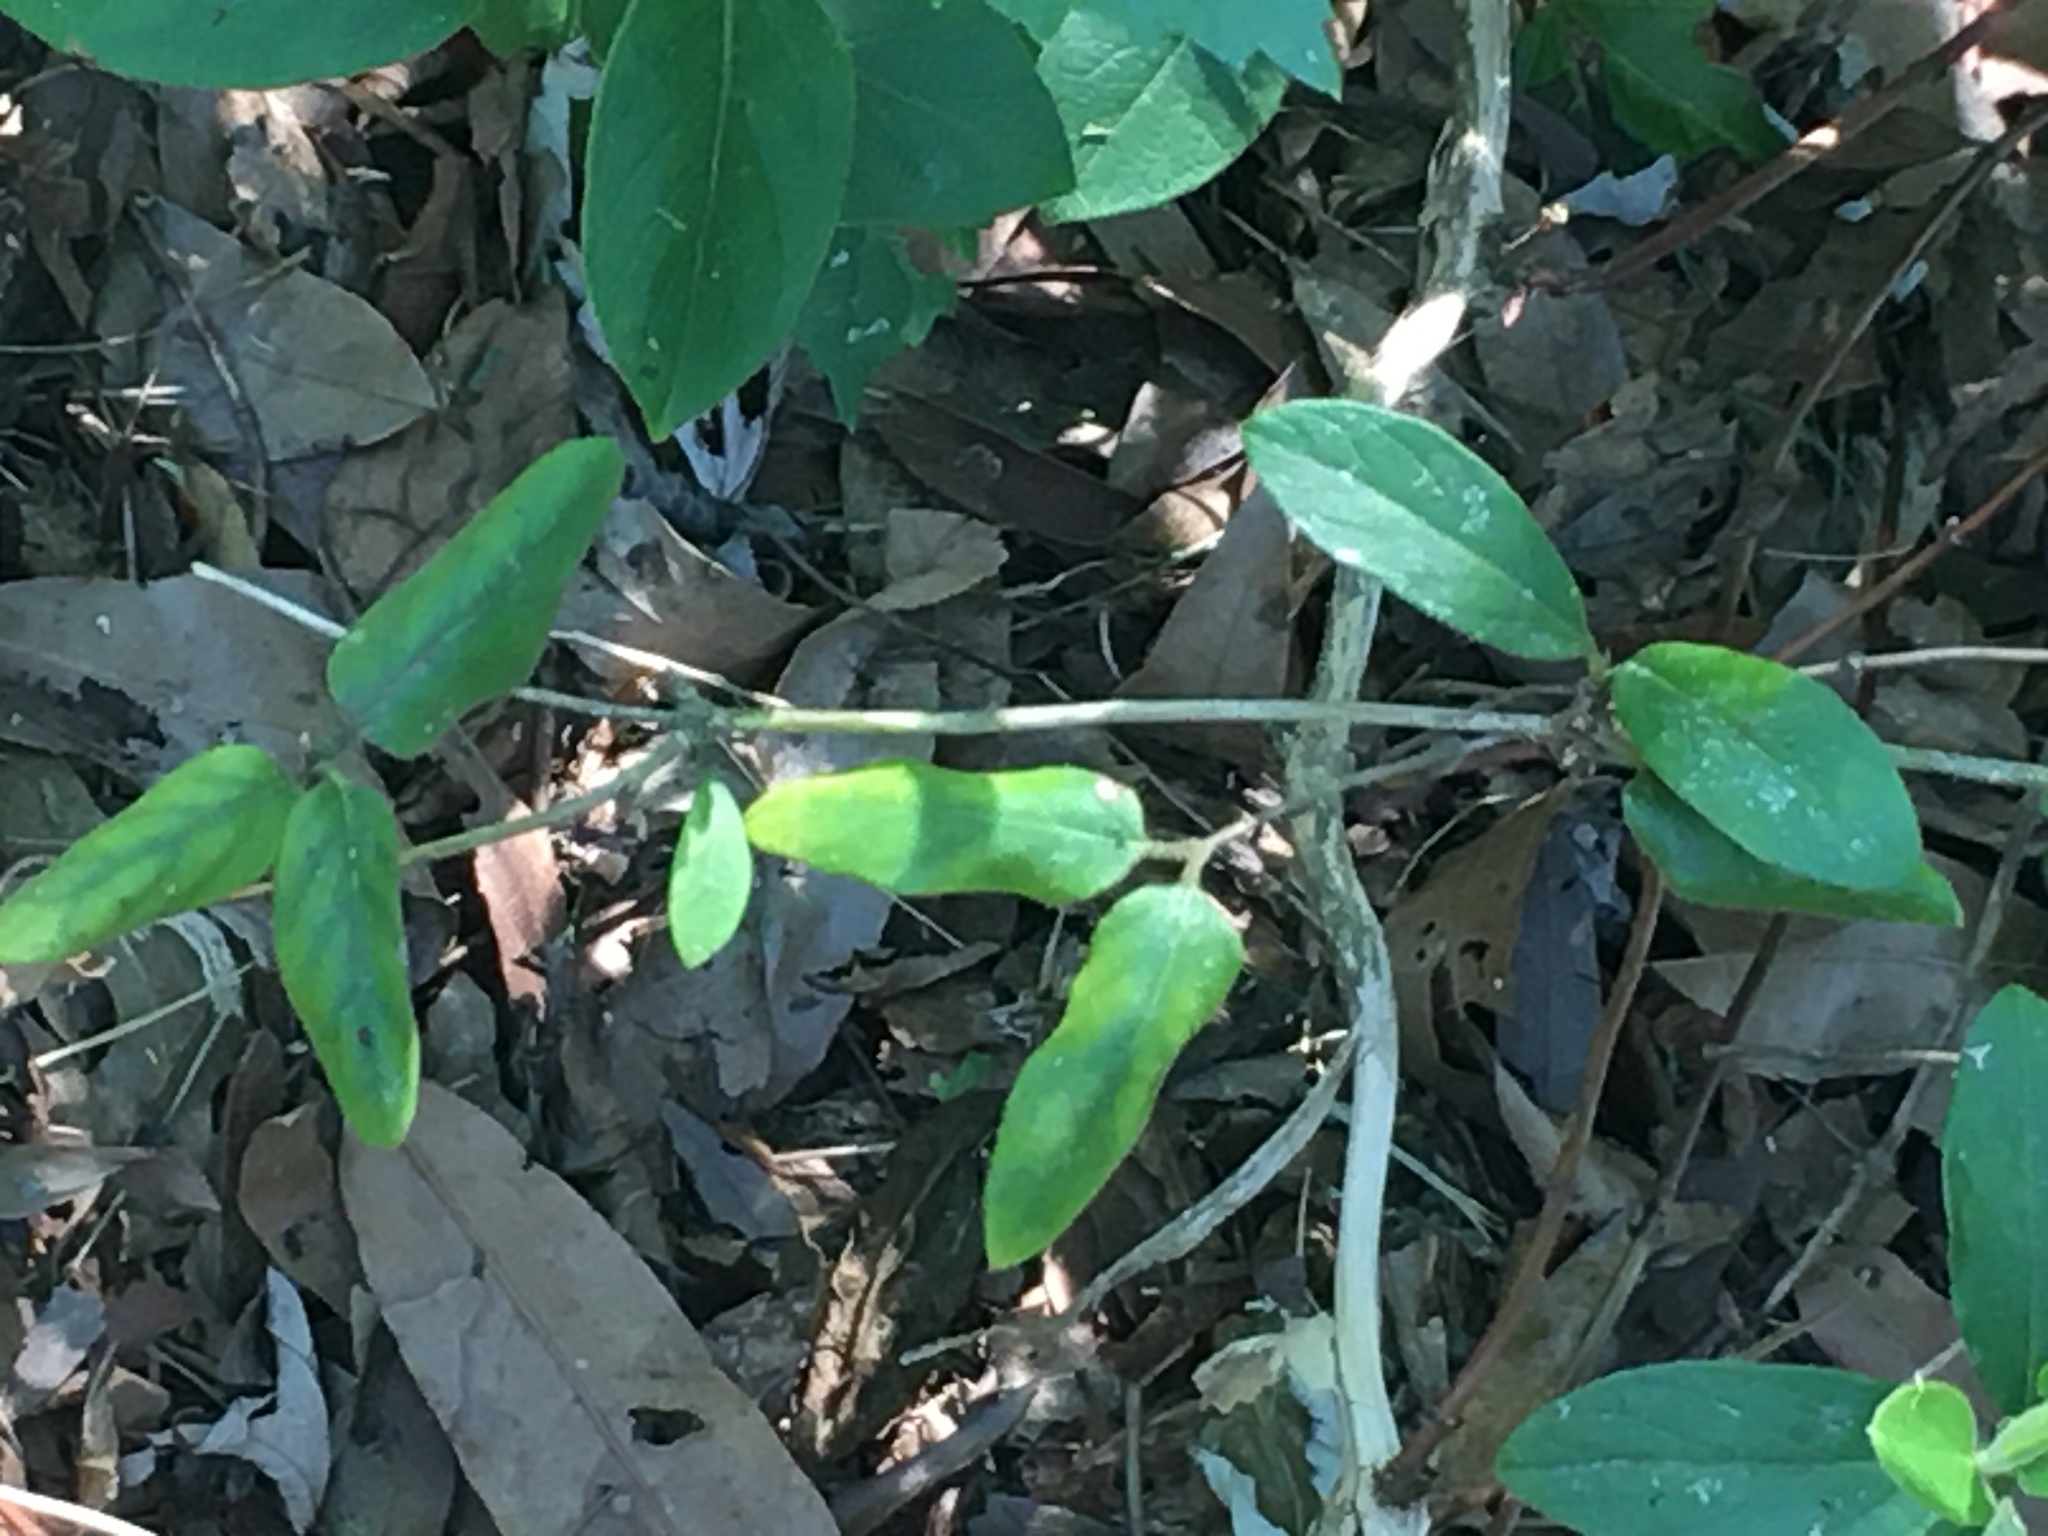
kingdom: Plantae
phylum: Tracheophyta
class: Magnoliopsida
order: Dipsacales
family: Caprifoliaceae
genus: Lonicera
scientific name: Lonicera japonica
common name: Japanese honeysuckle
